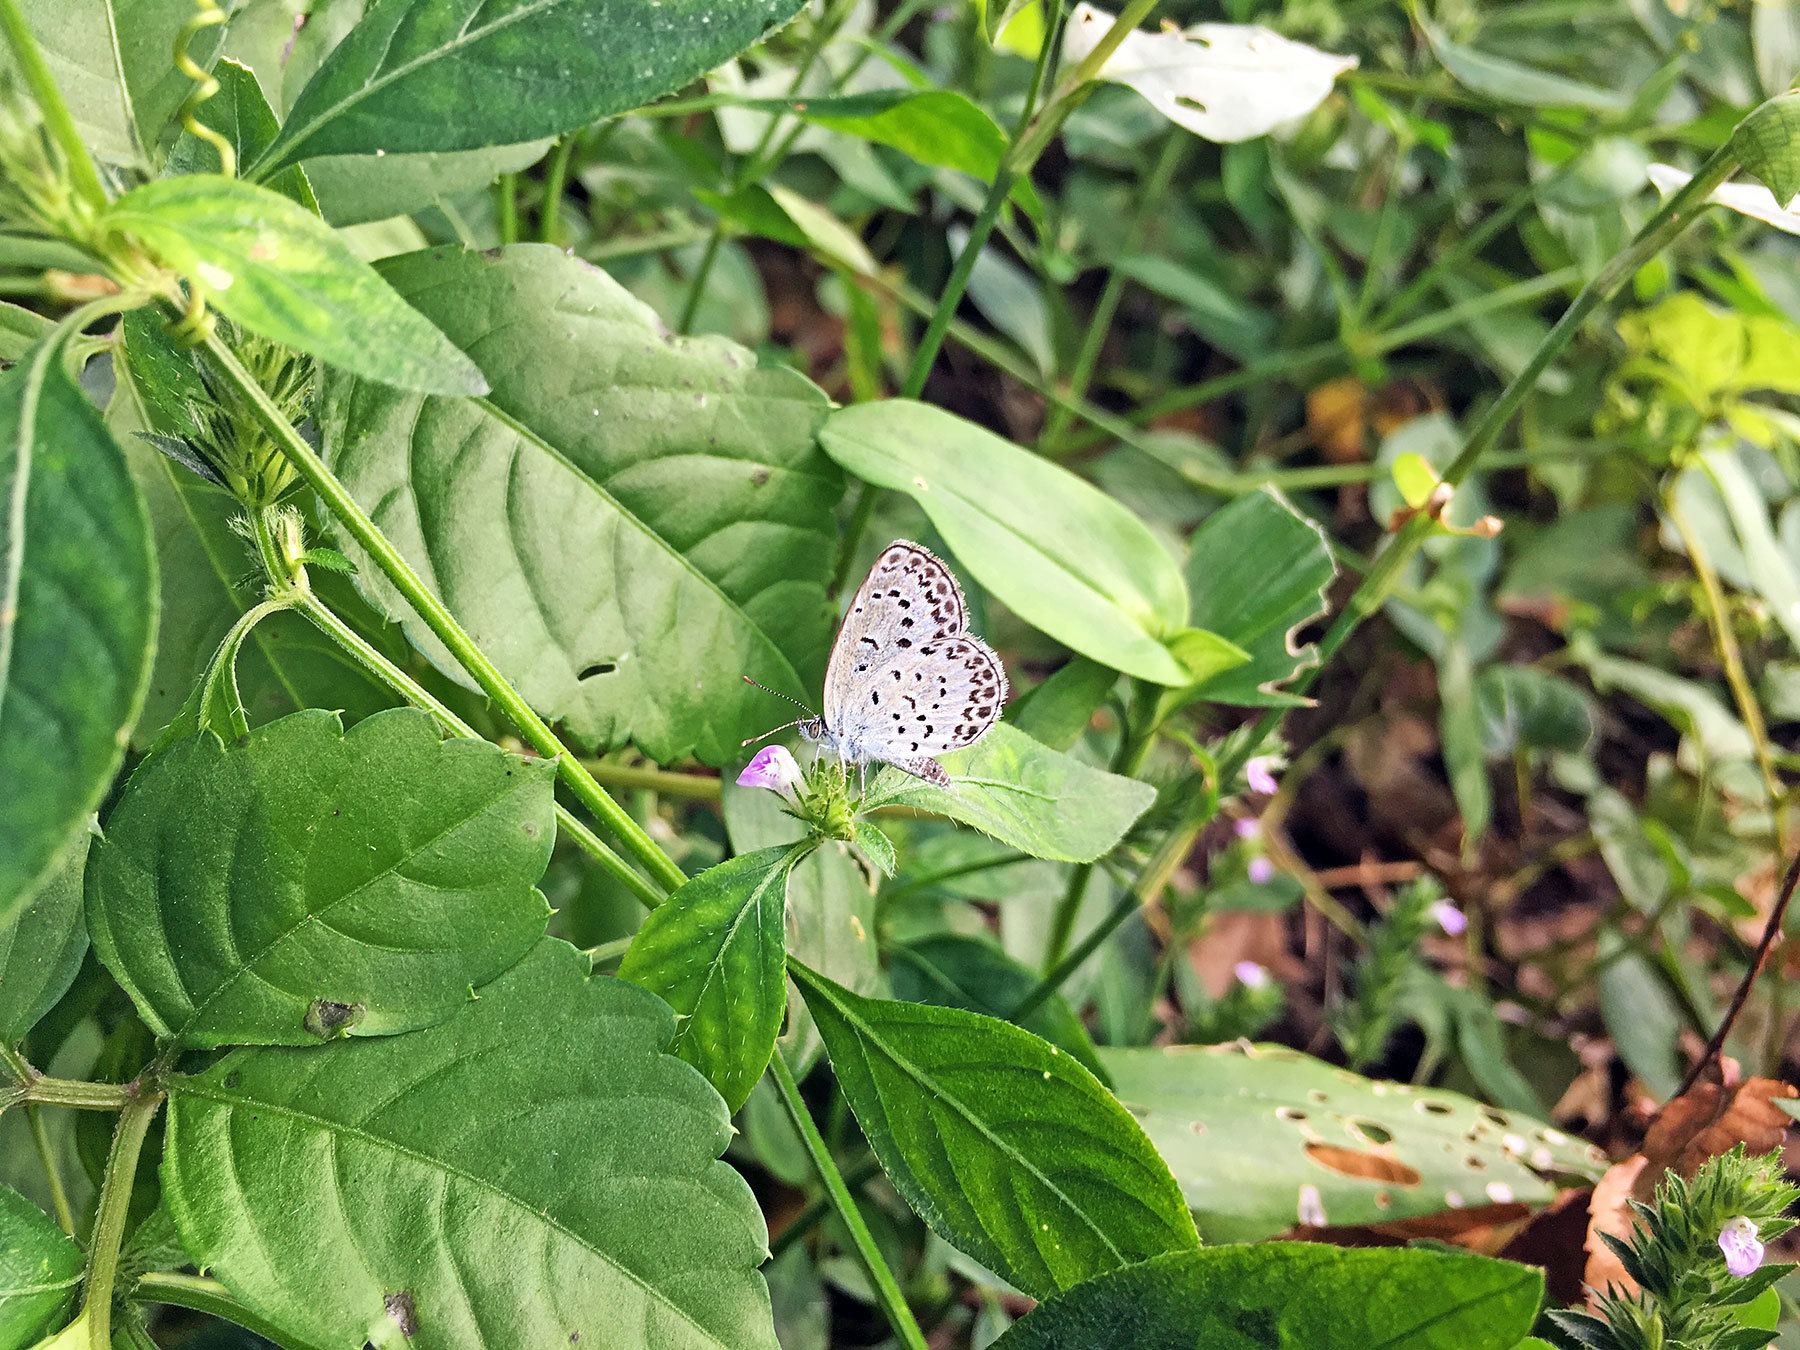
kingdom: Animalia
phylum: Arthropoda
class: Insecta
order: Lepidoptera
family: Lycaenidae
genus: Pseudozizeeria
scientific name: Pseudozizeeria maha
